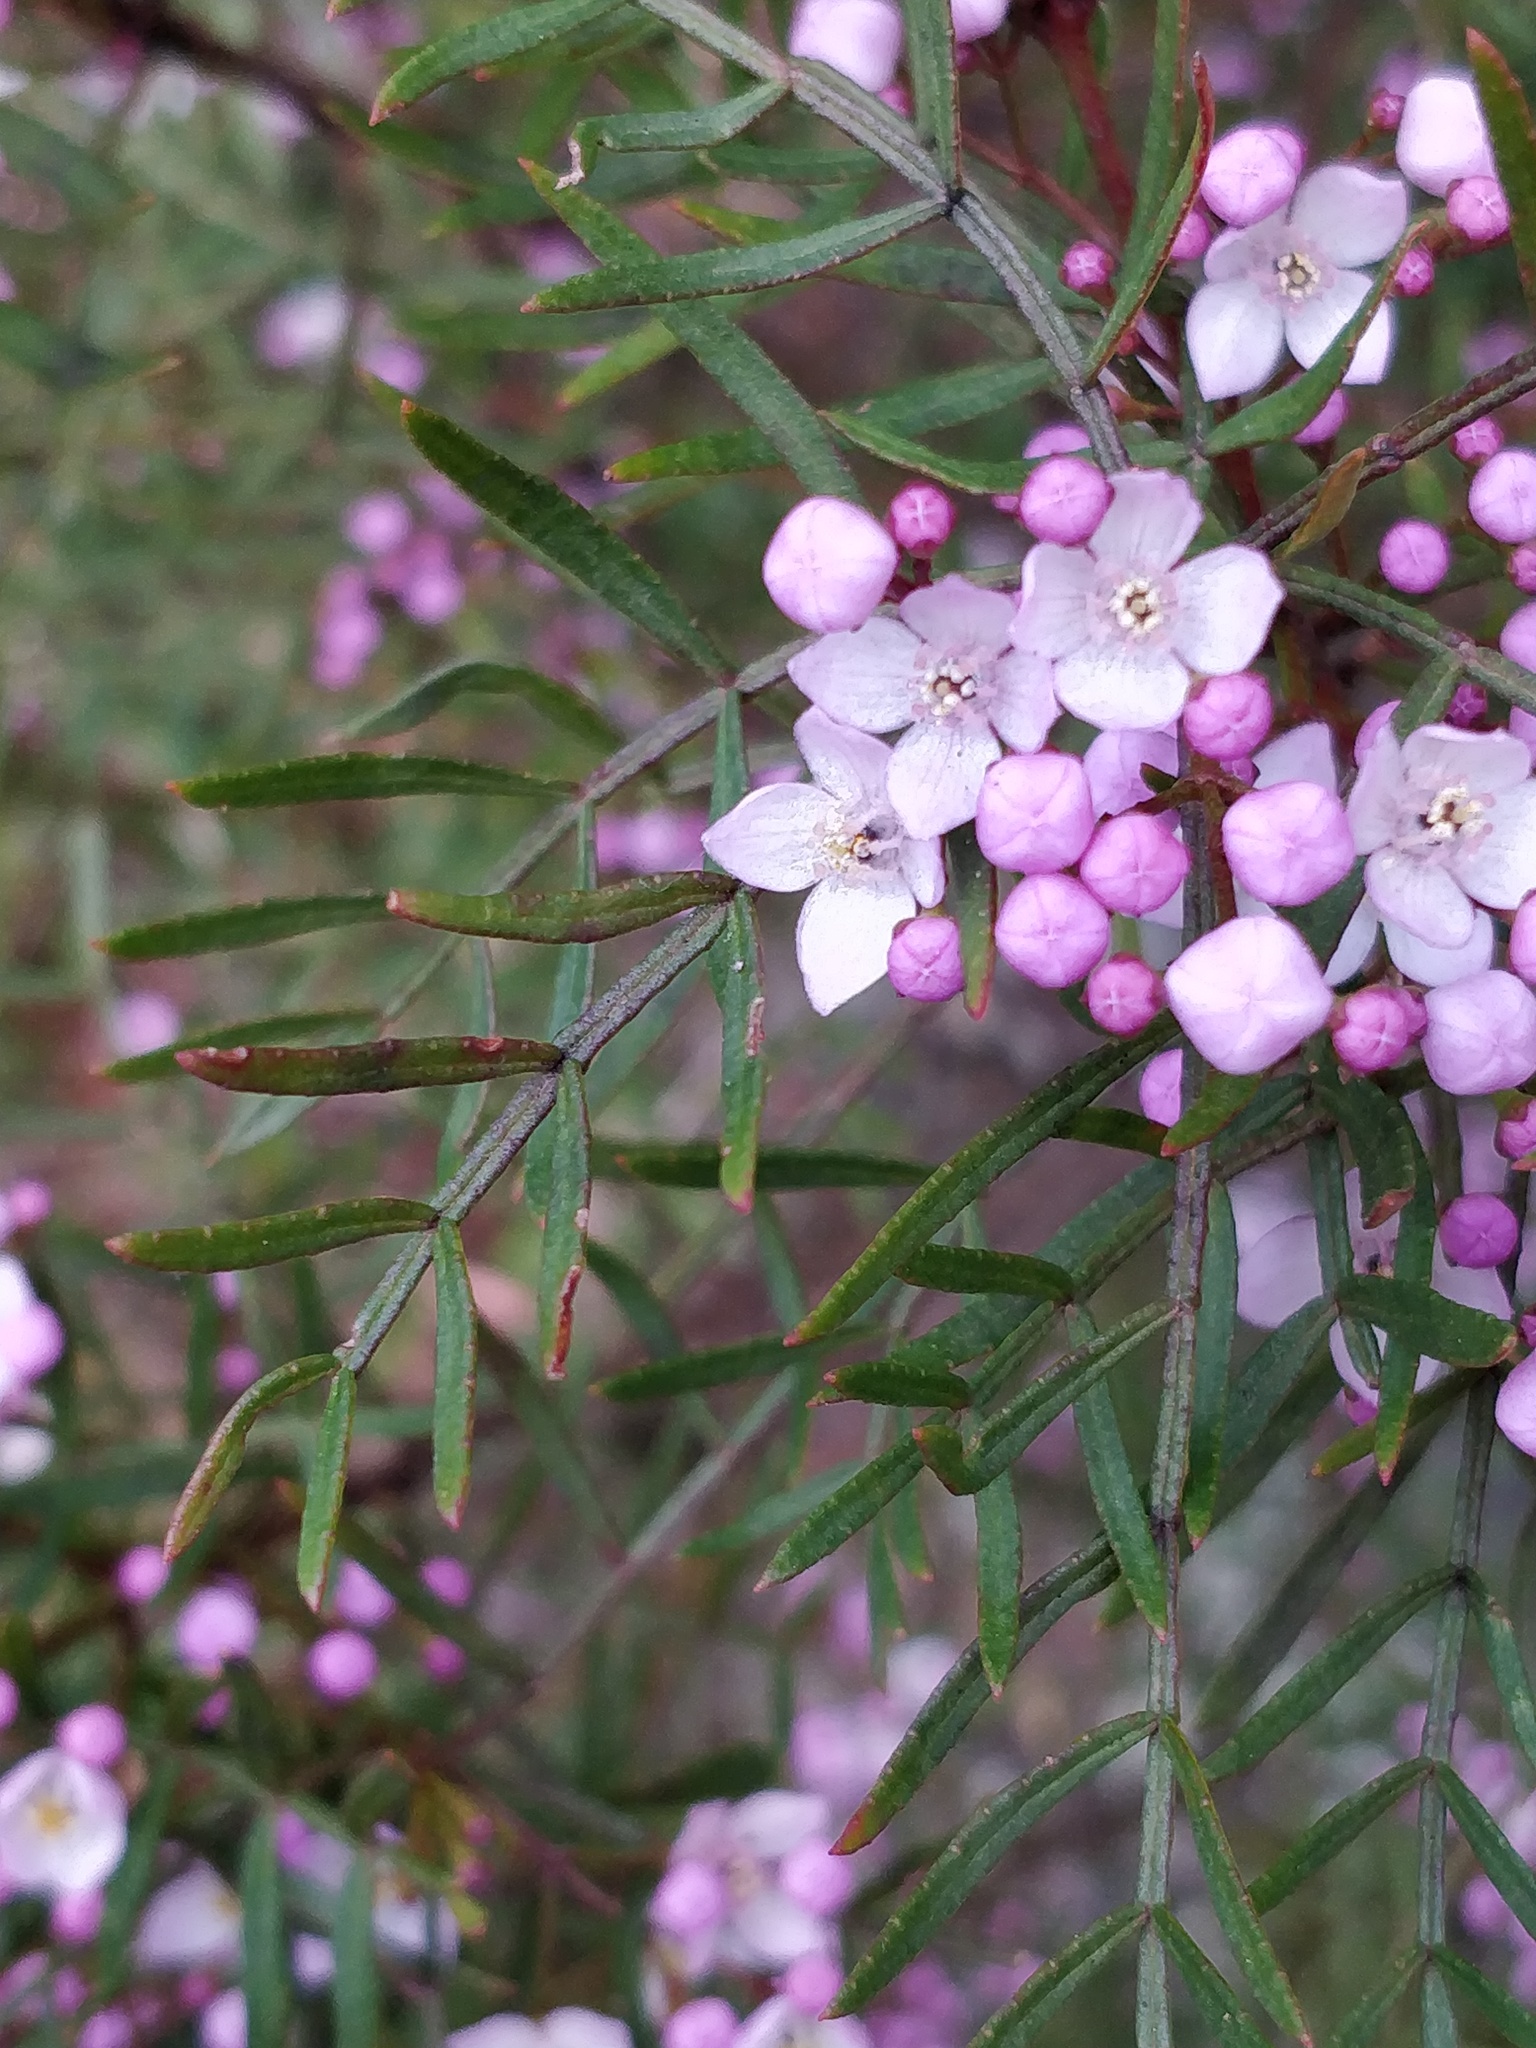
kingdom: Plantae
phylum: Tracheophyta
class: Magnoliopsida
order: Sapindales
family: Rutaceae
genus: Boronia
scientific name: Boronia thujona
